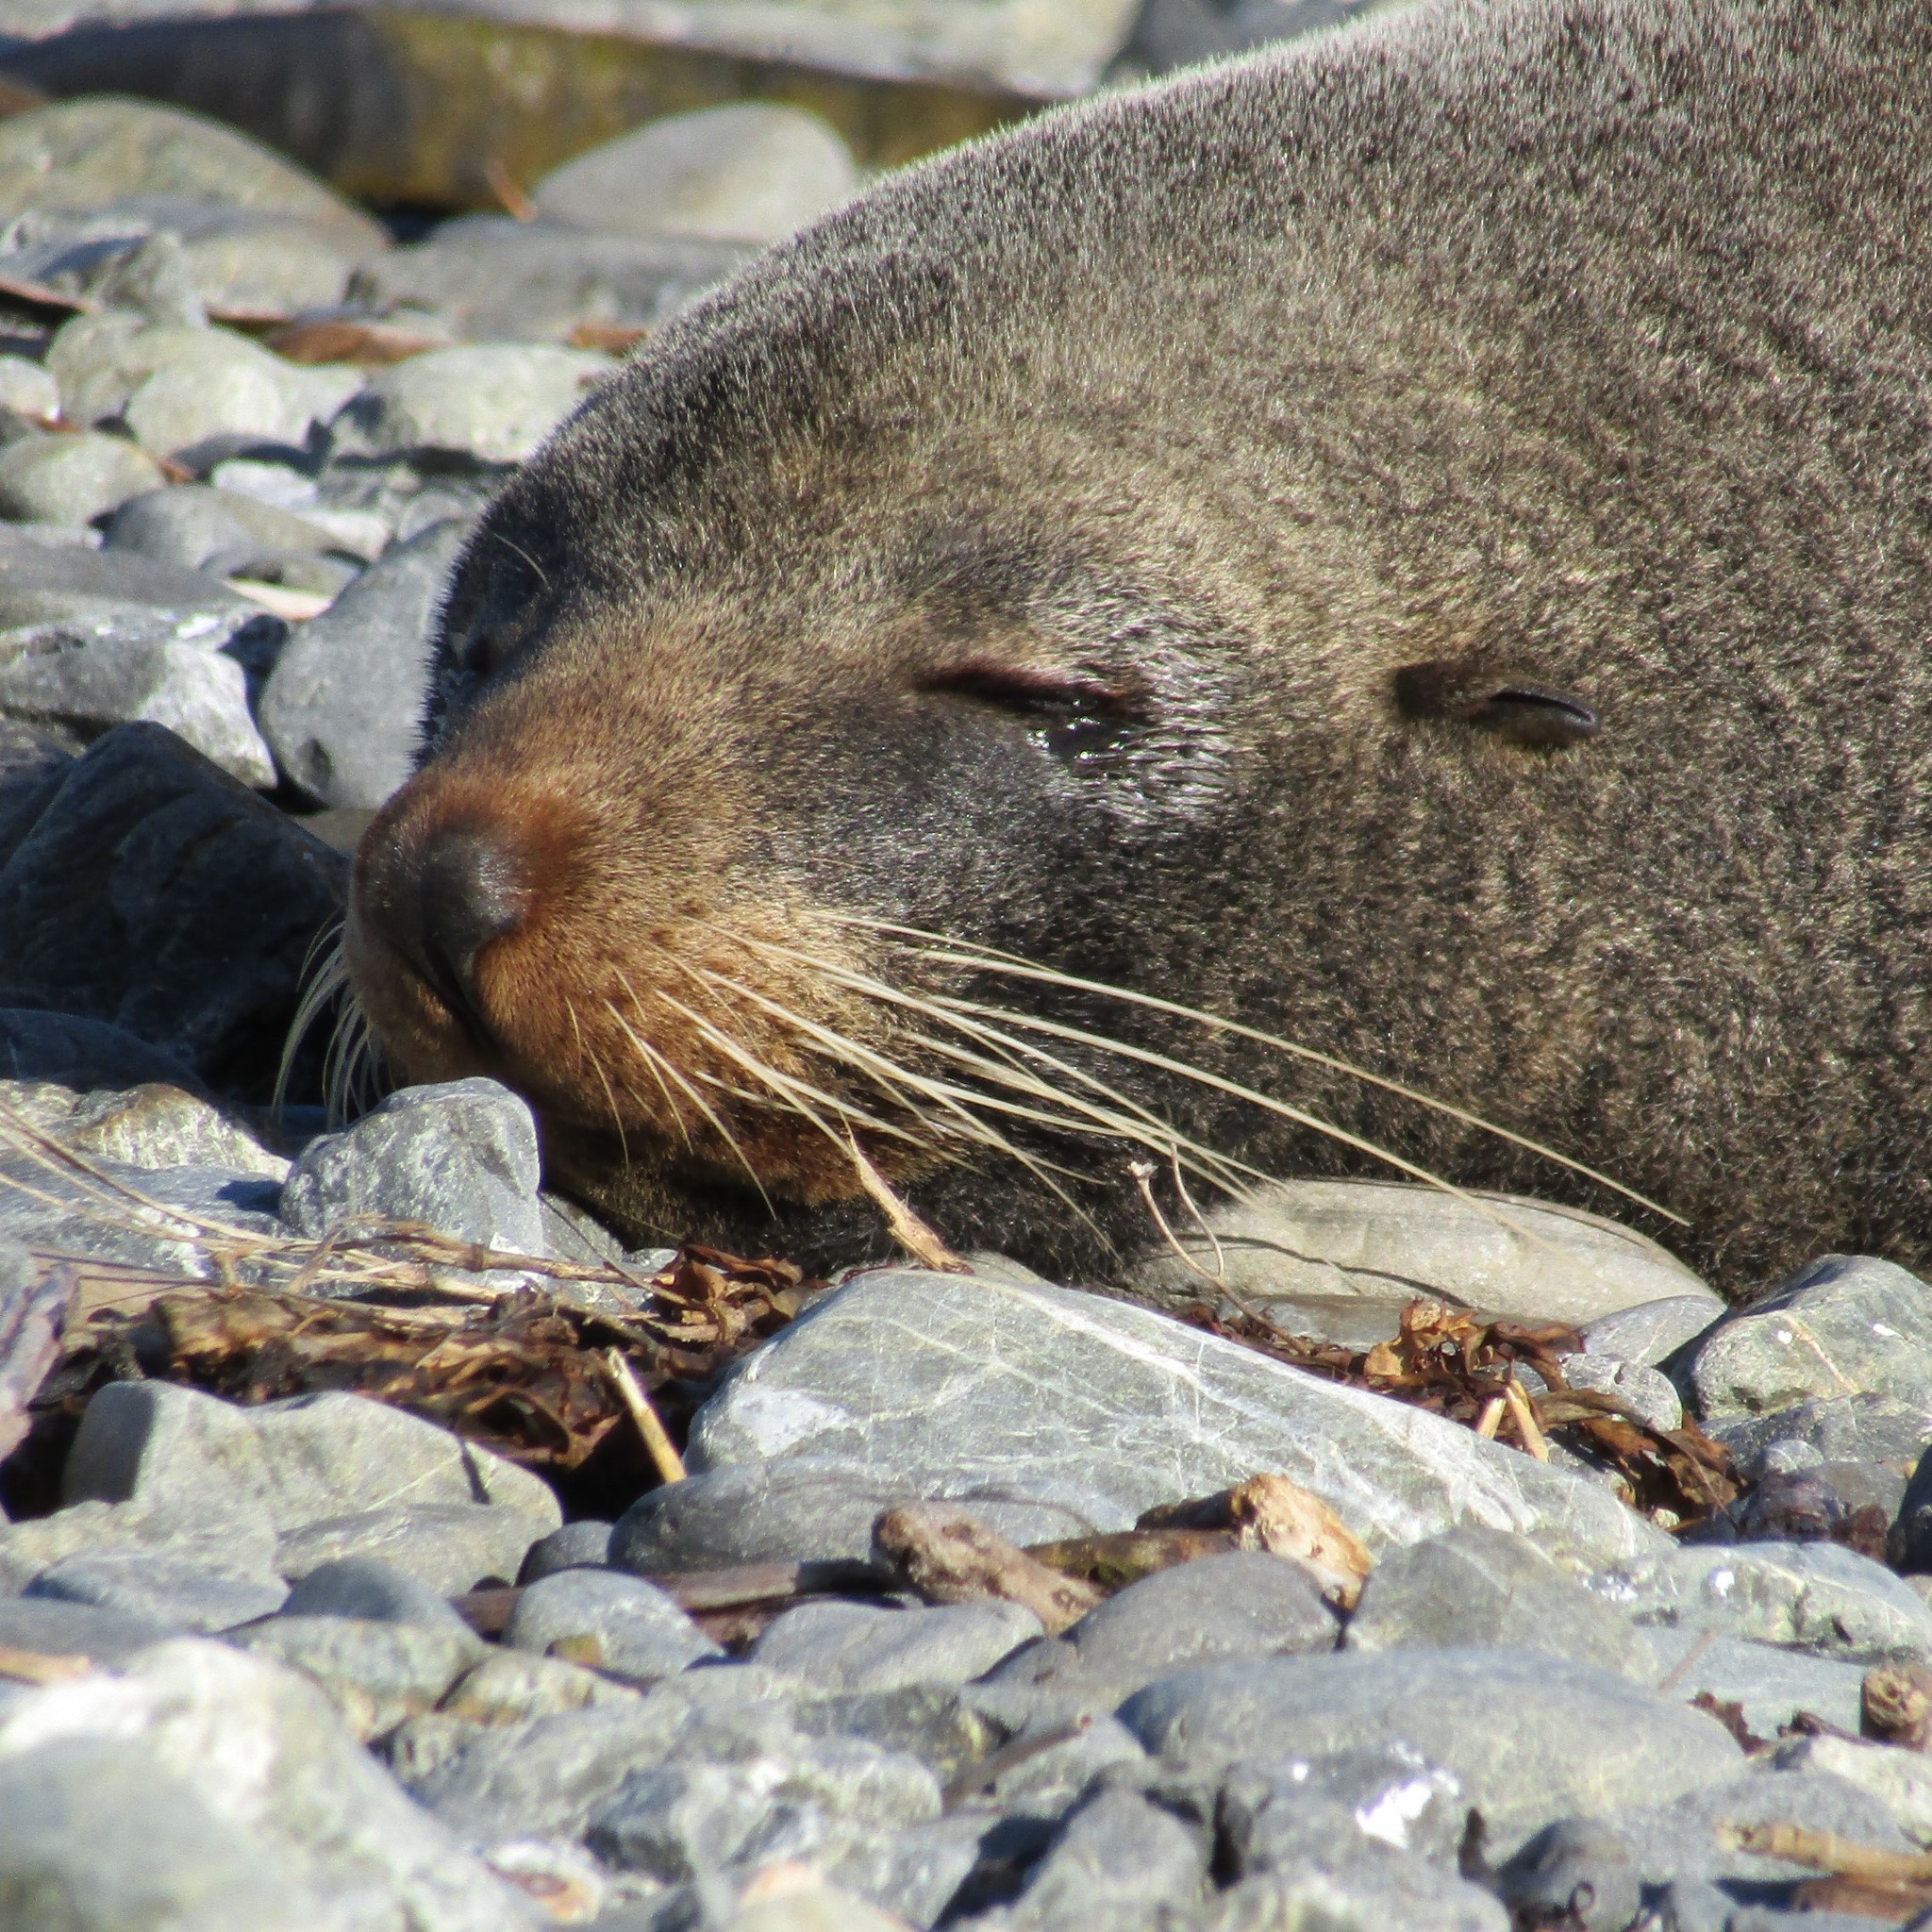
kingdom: Animalia
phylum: Chordata
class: Mammalia
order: Carnivora
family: Otariidae
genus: Arctocephalus
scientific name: Arctocephalus forsteri
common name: New zealand fur seal
